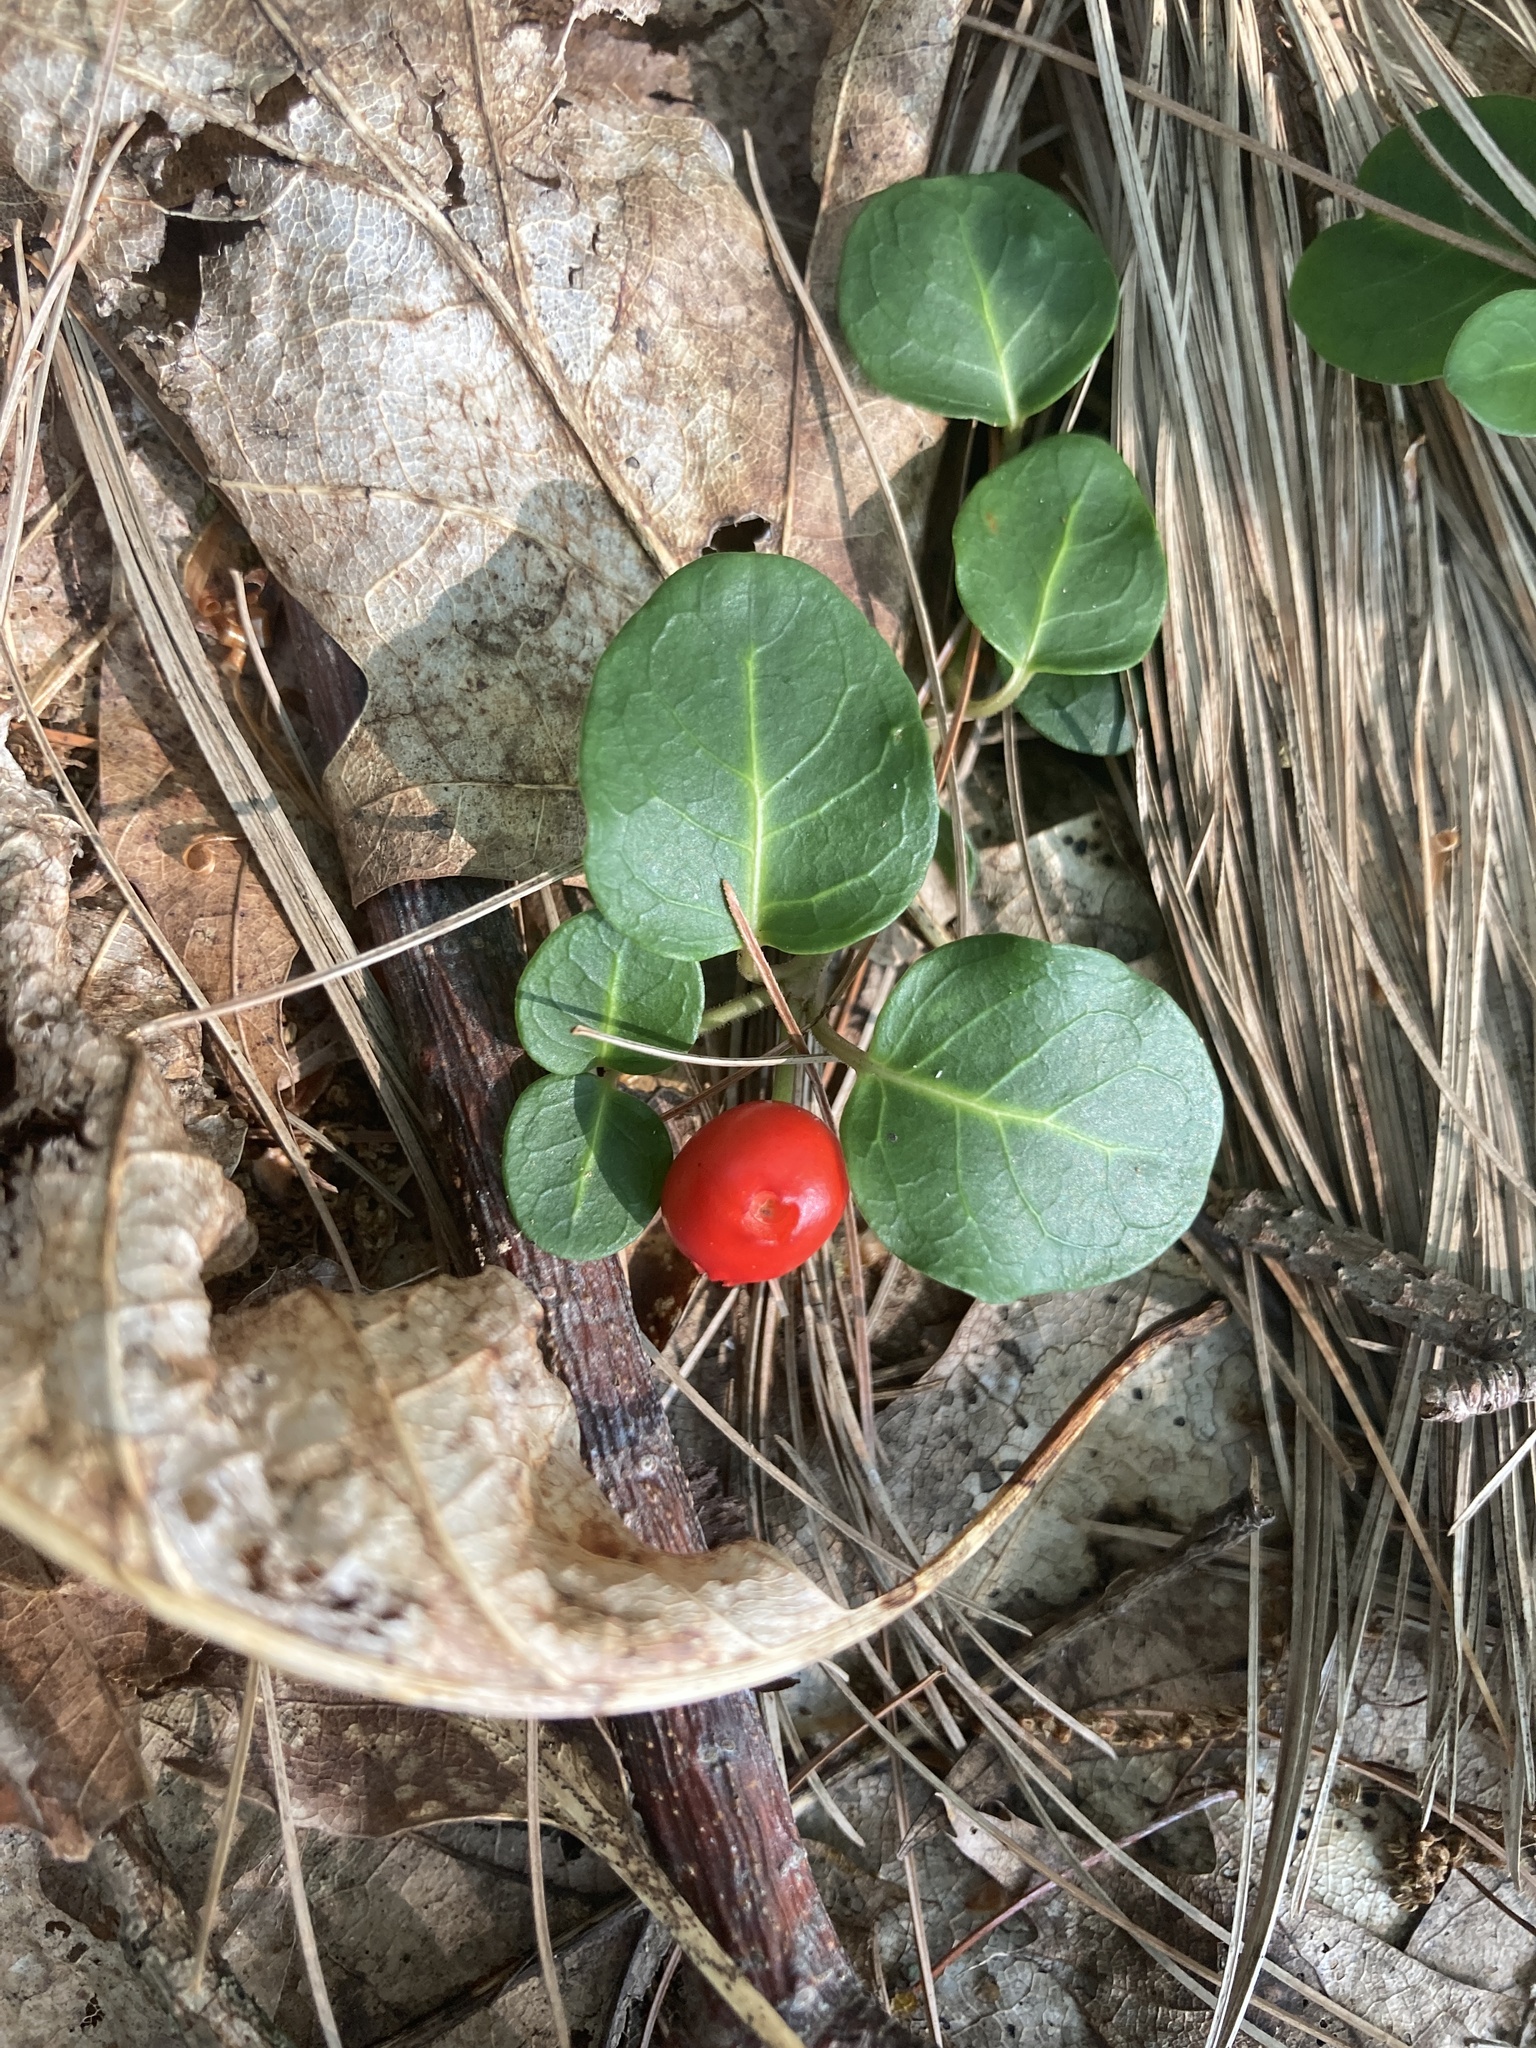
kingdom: Plantae
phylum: Tracheophyta
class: Magnoliopsida
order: Gentianales
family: Rubiaceae
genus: Mitchella
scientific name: Mitchella repens
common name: Partridge-berry
